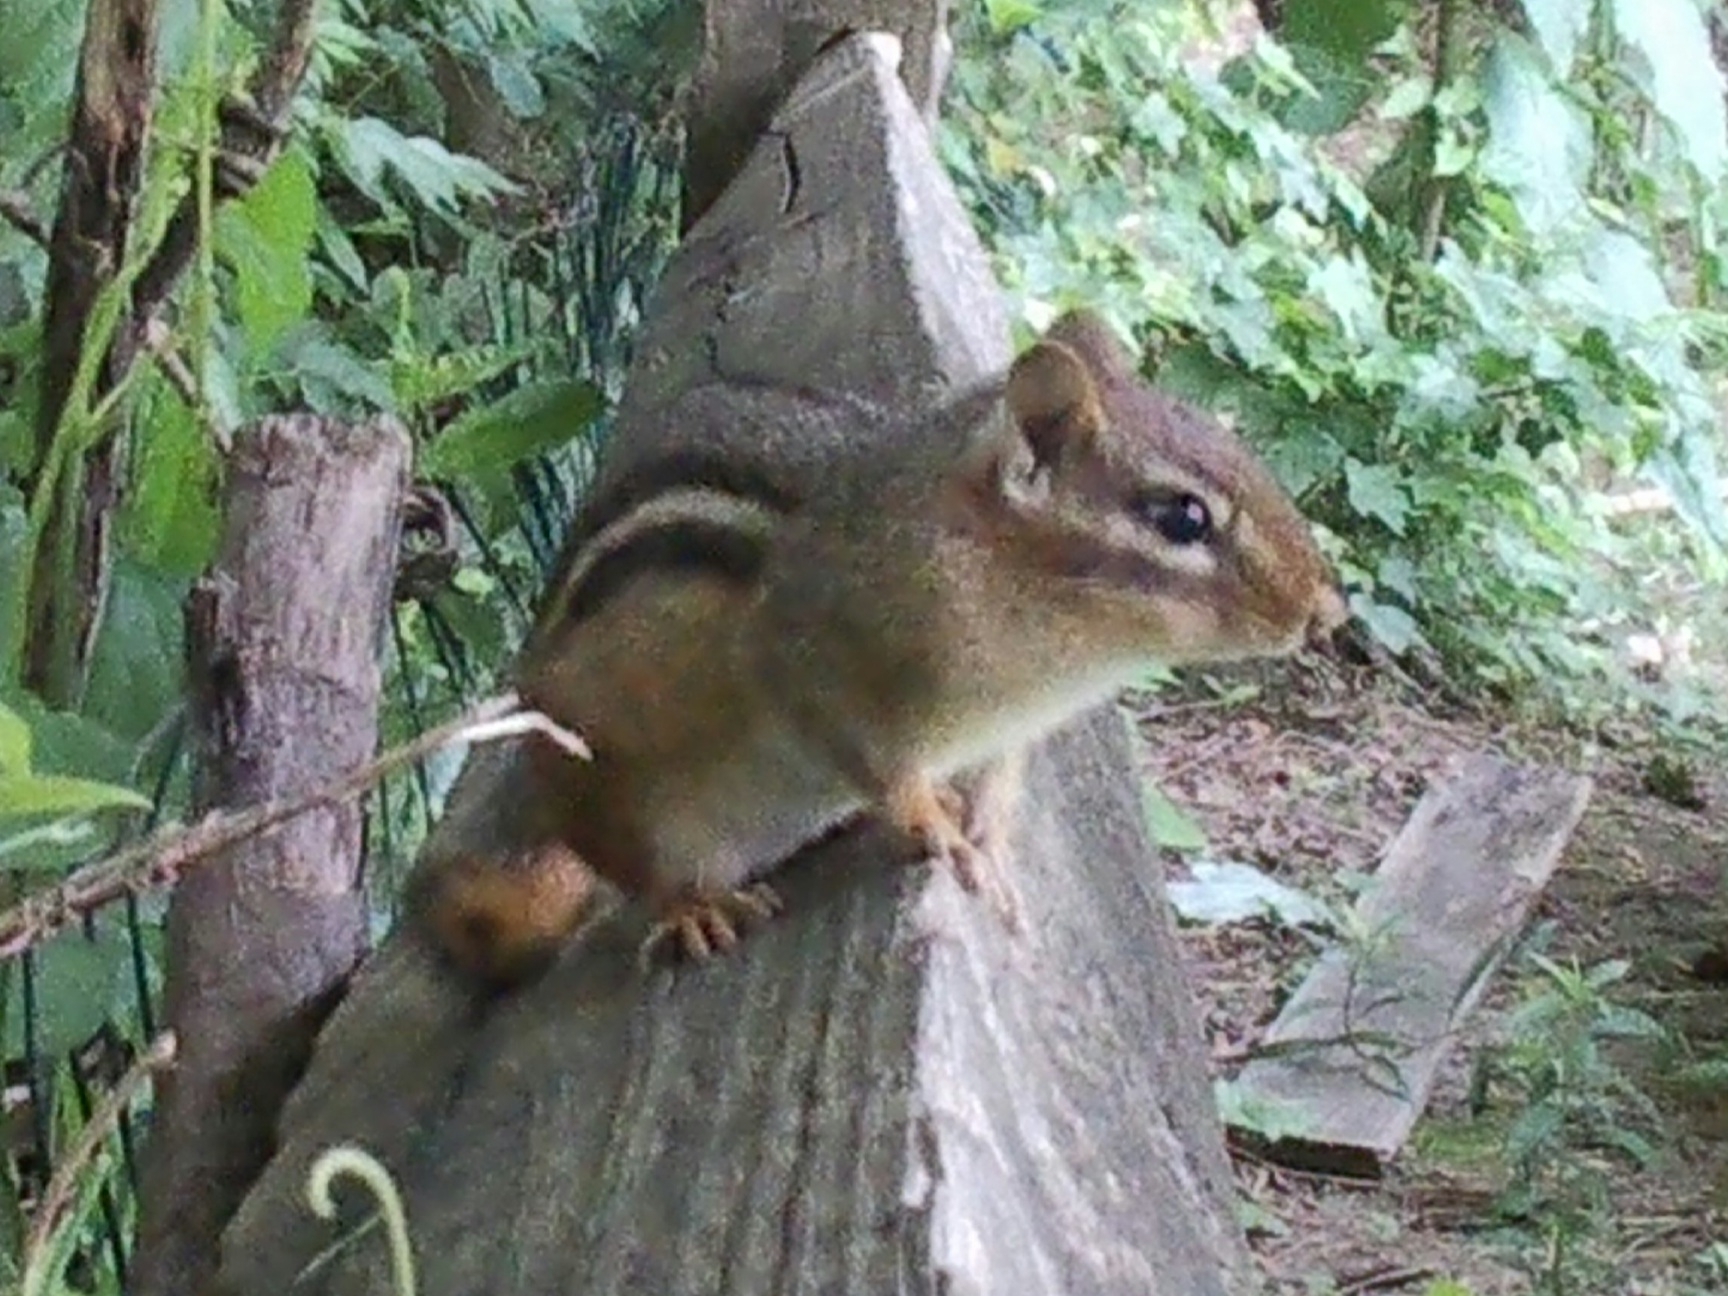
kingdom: Animalia
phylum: Chordata
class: Mammalia
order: Rodentia
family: Sciuridae
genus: Tamias
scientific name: Tamias striatus
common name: Eastern chipmunk
